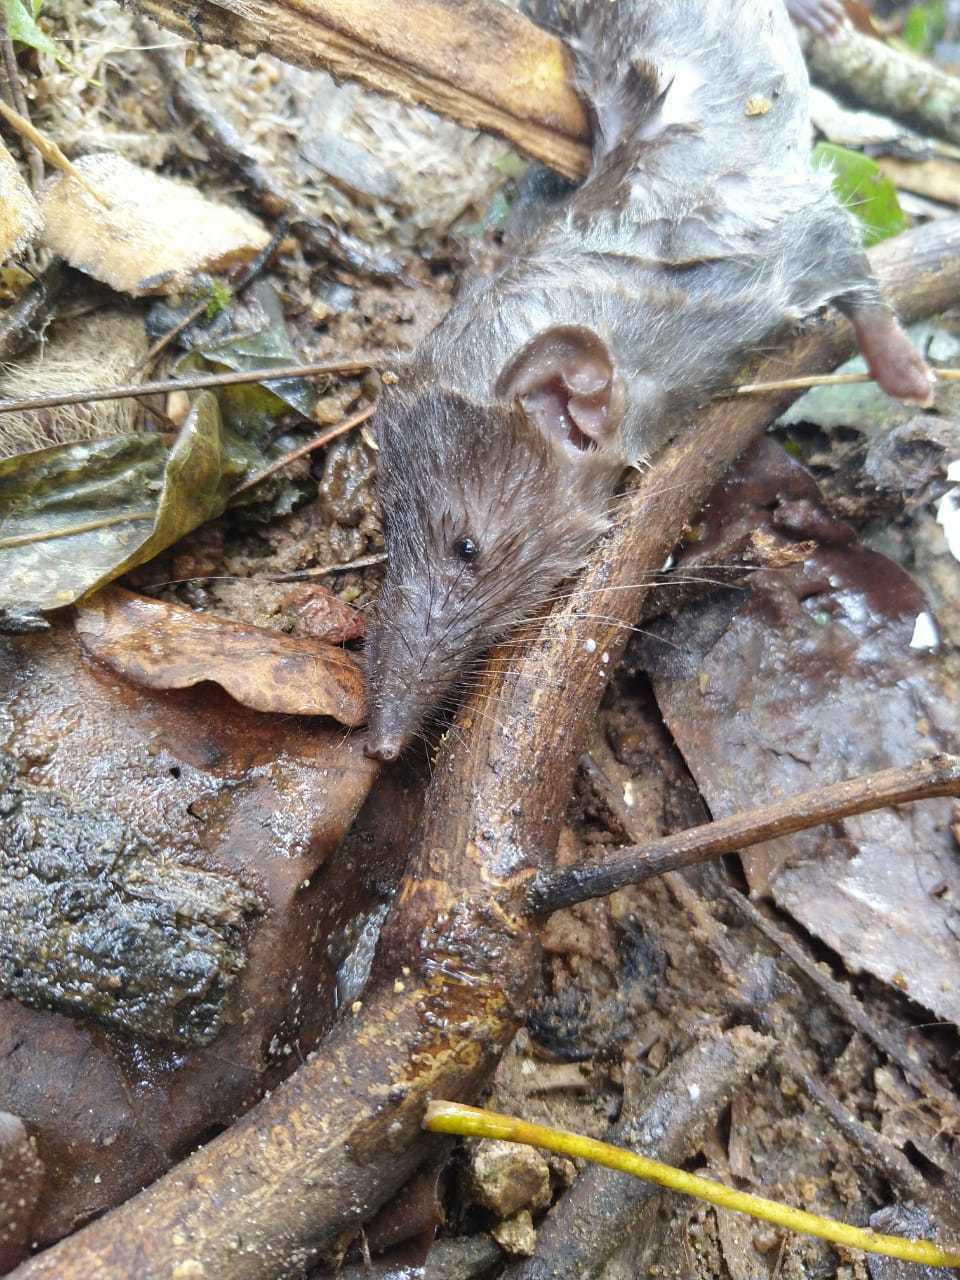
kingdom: Animalia
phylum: Chordata
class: Mammalia
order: Soricomorpha
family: Soricidae
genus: Suncus
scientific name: Suncus murinus
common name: Asian house shrew
